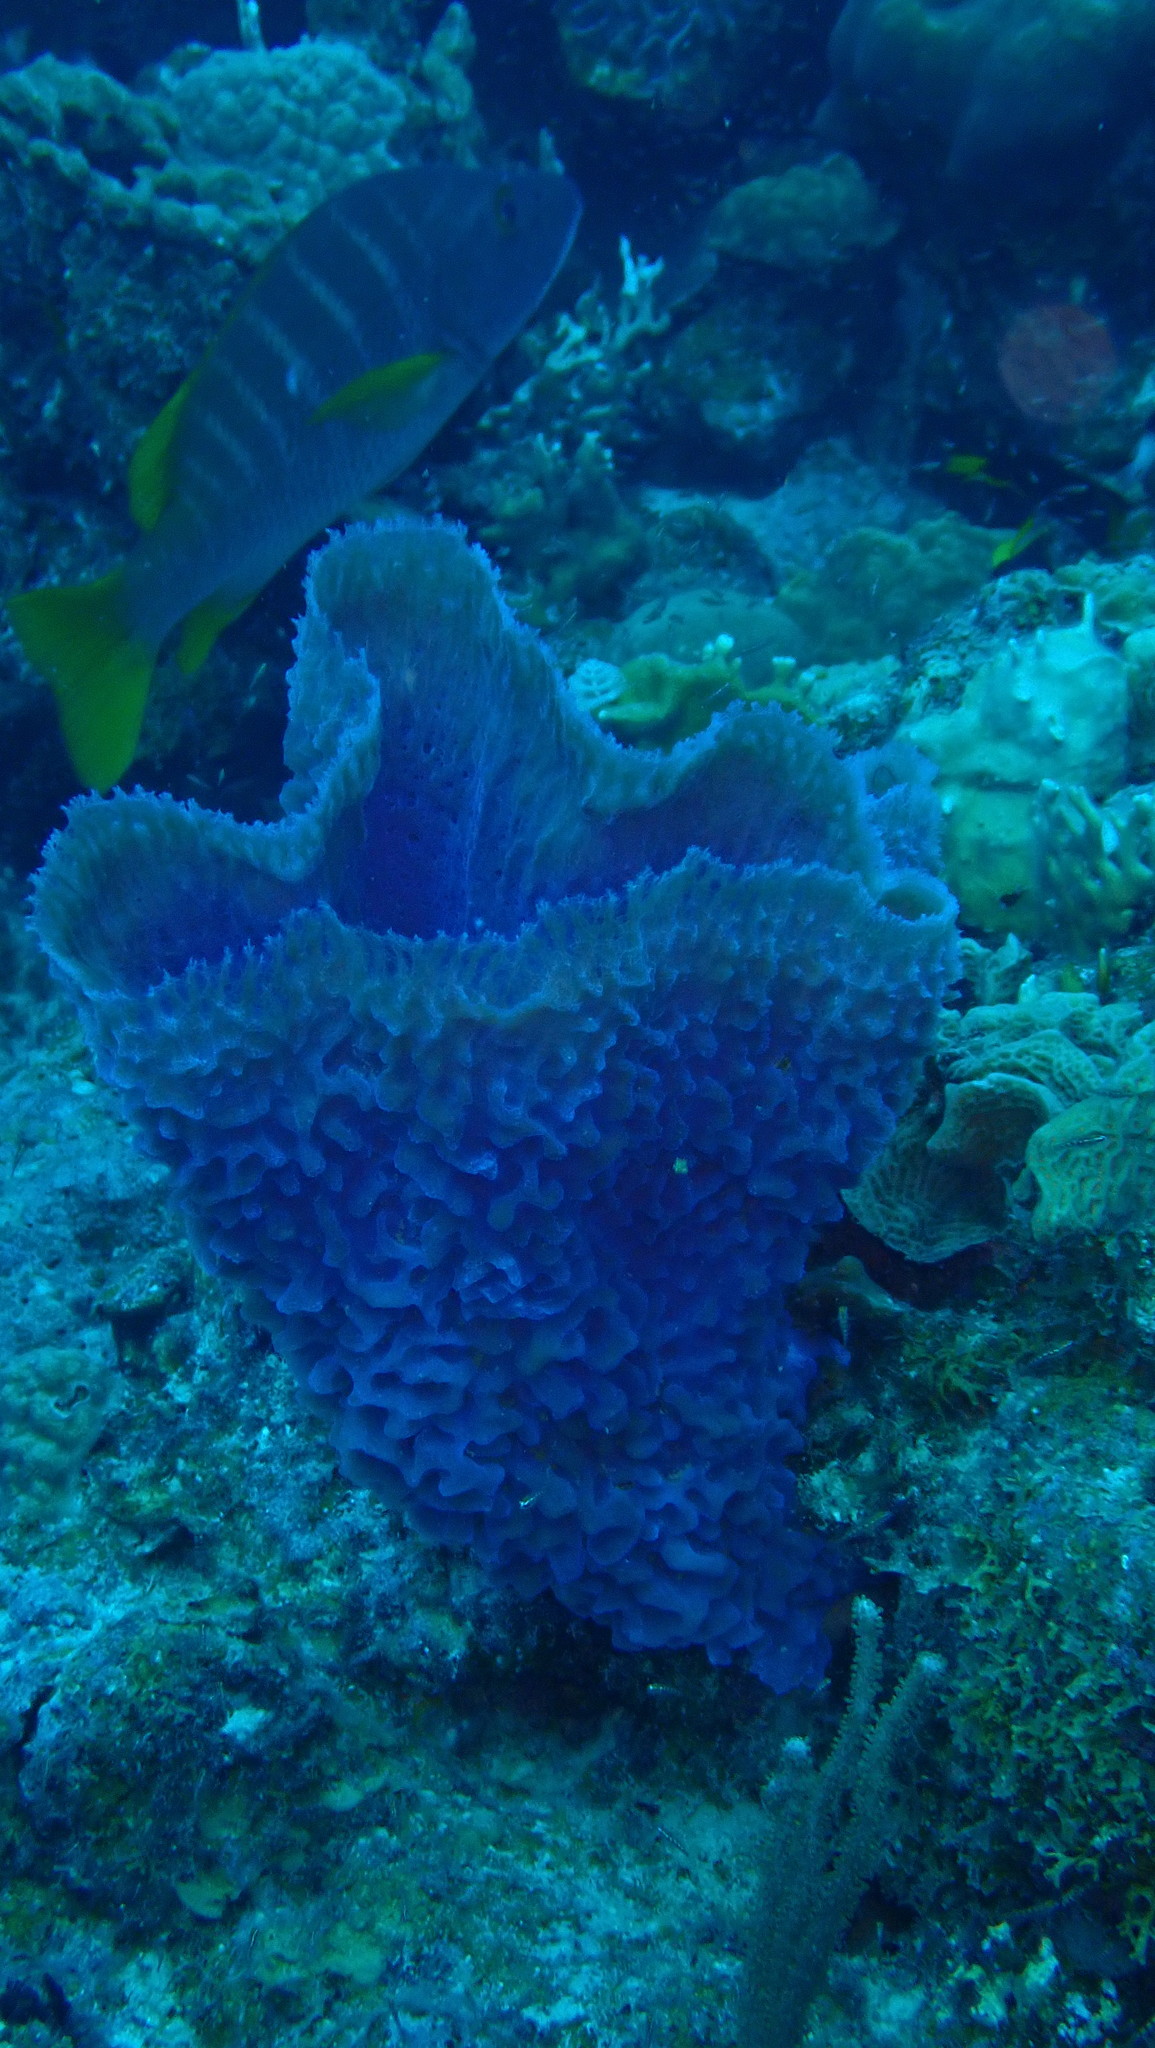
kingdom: Animalia
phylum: Porifera
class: Demospongiae
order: Haplosclerida
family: Callyspongiidae
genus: Callyspongia
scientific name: Callyspongia plicifera
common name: Azure vase sponge
